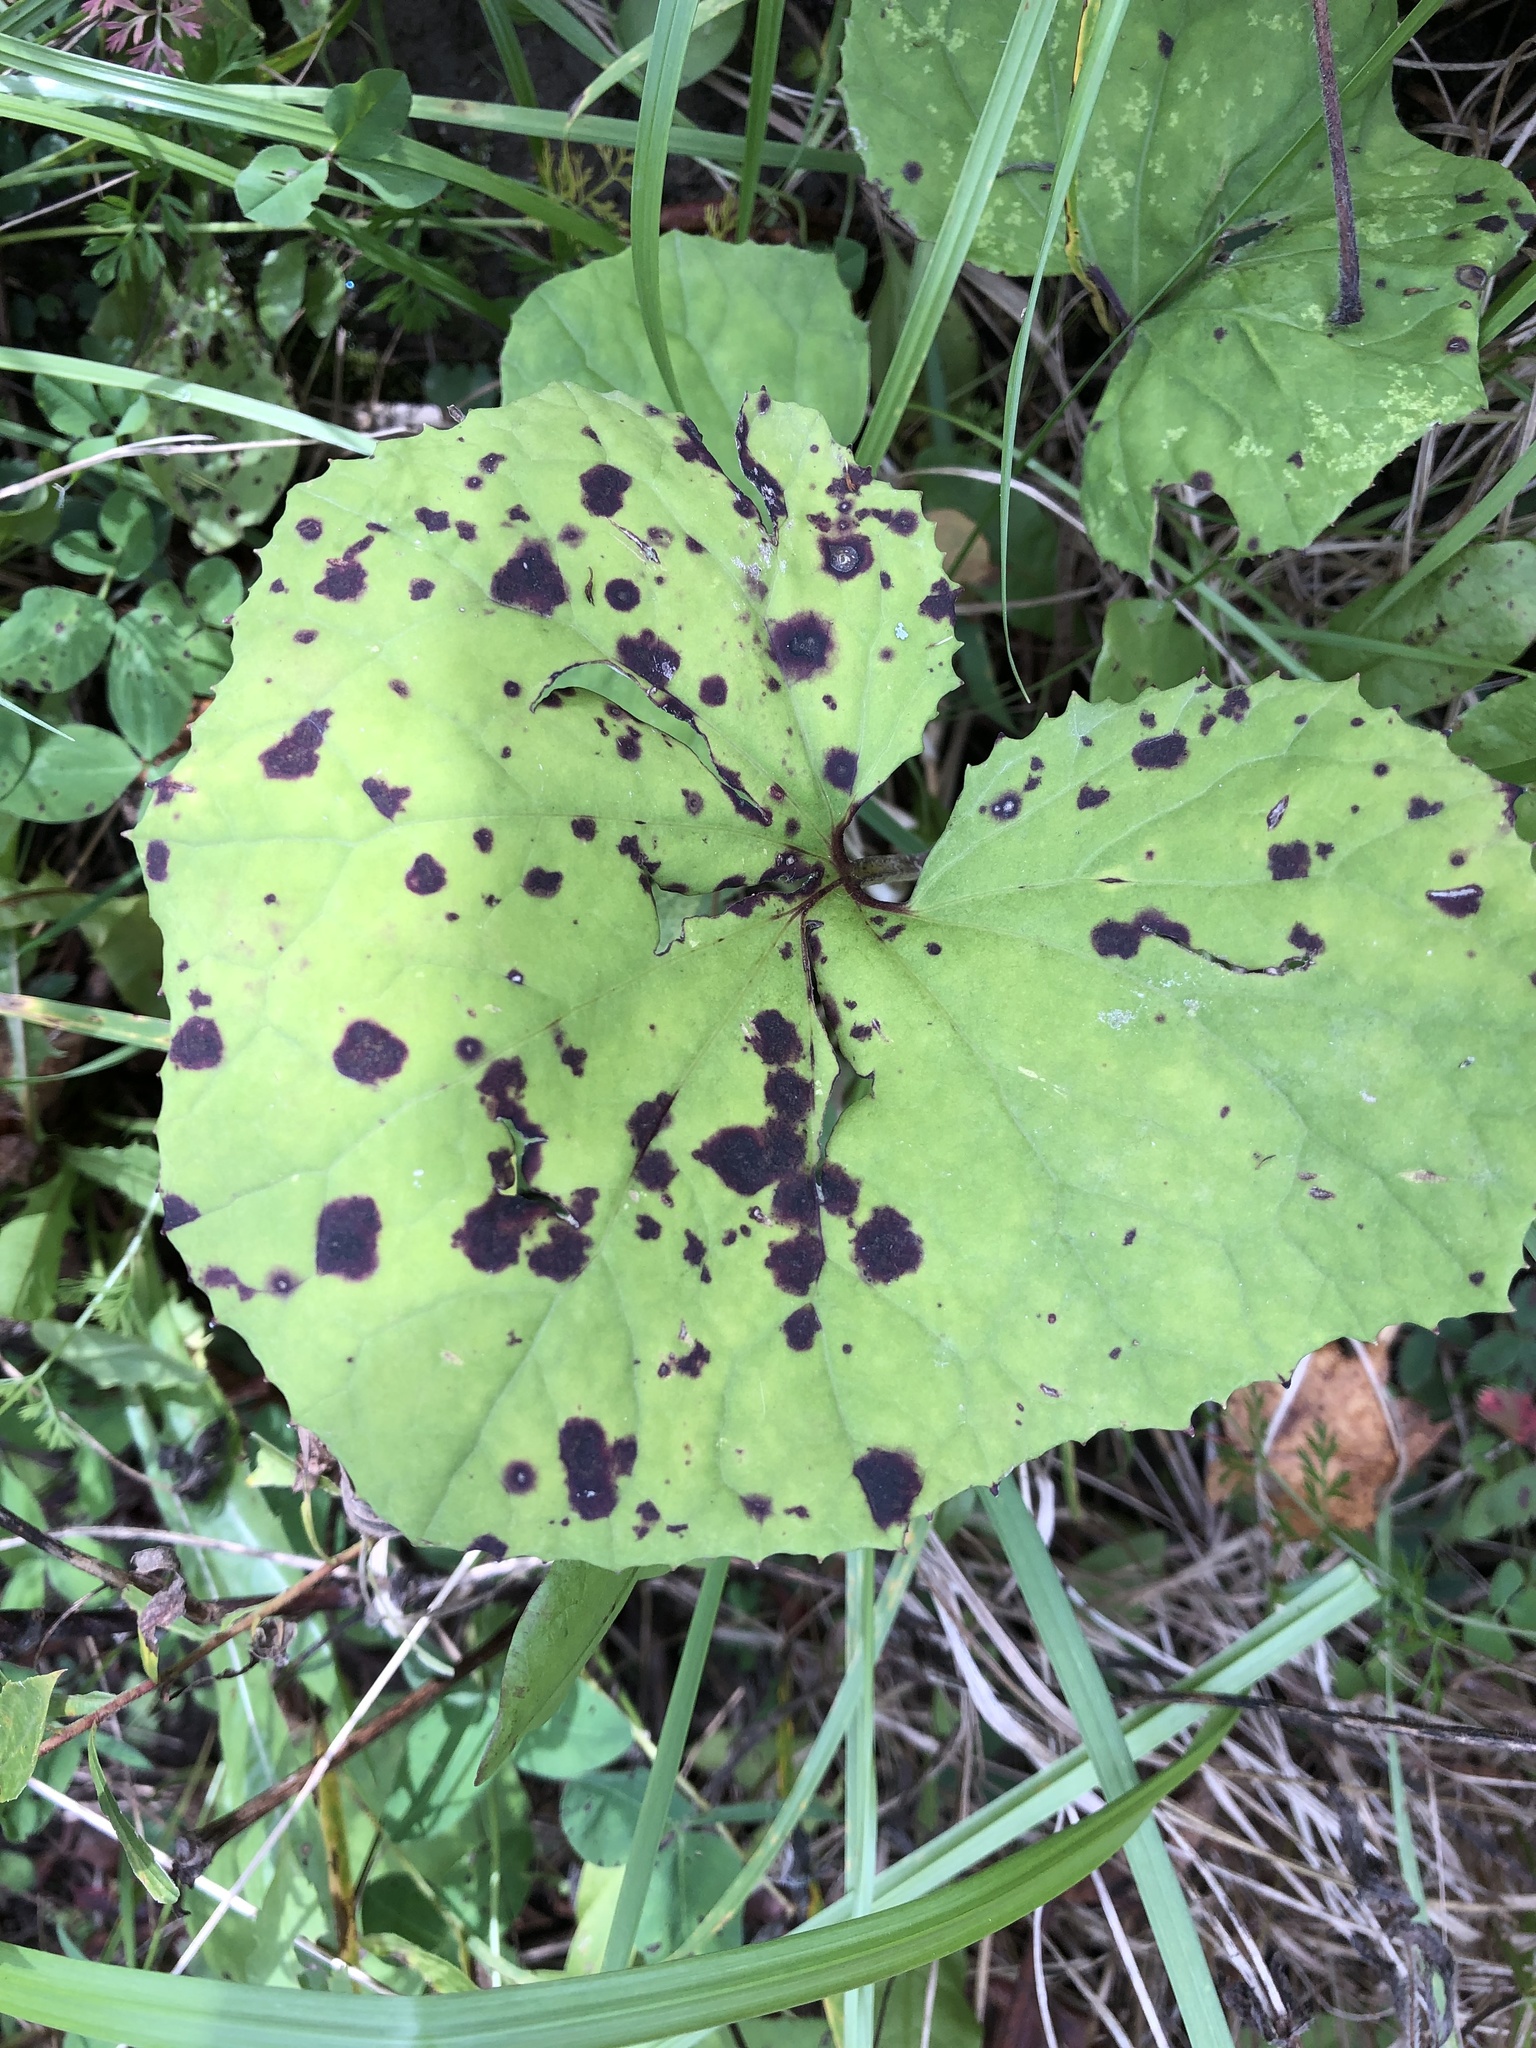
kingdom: Plantae
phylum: Tracheophyta
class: Magnoliopsida
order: Asterales
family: Asteraceae
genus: Tussilago
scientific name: Tussilago farfara
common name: Coltsfoot
